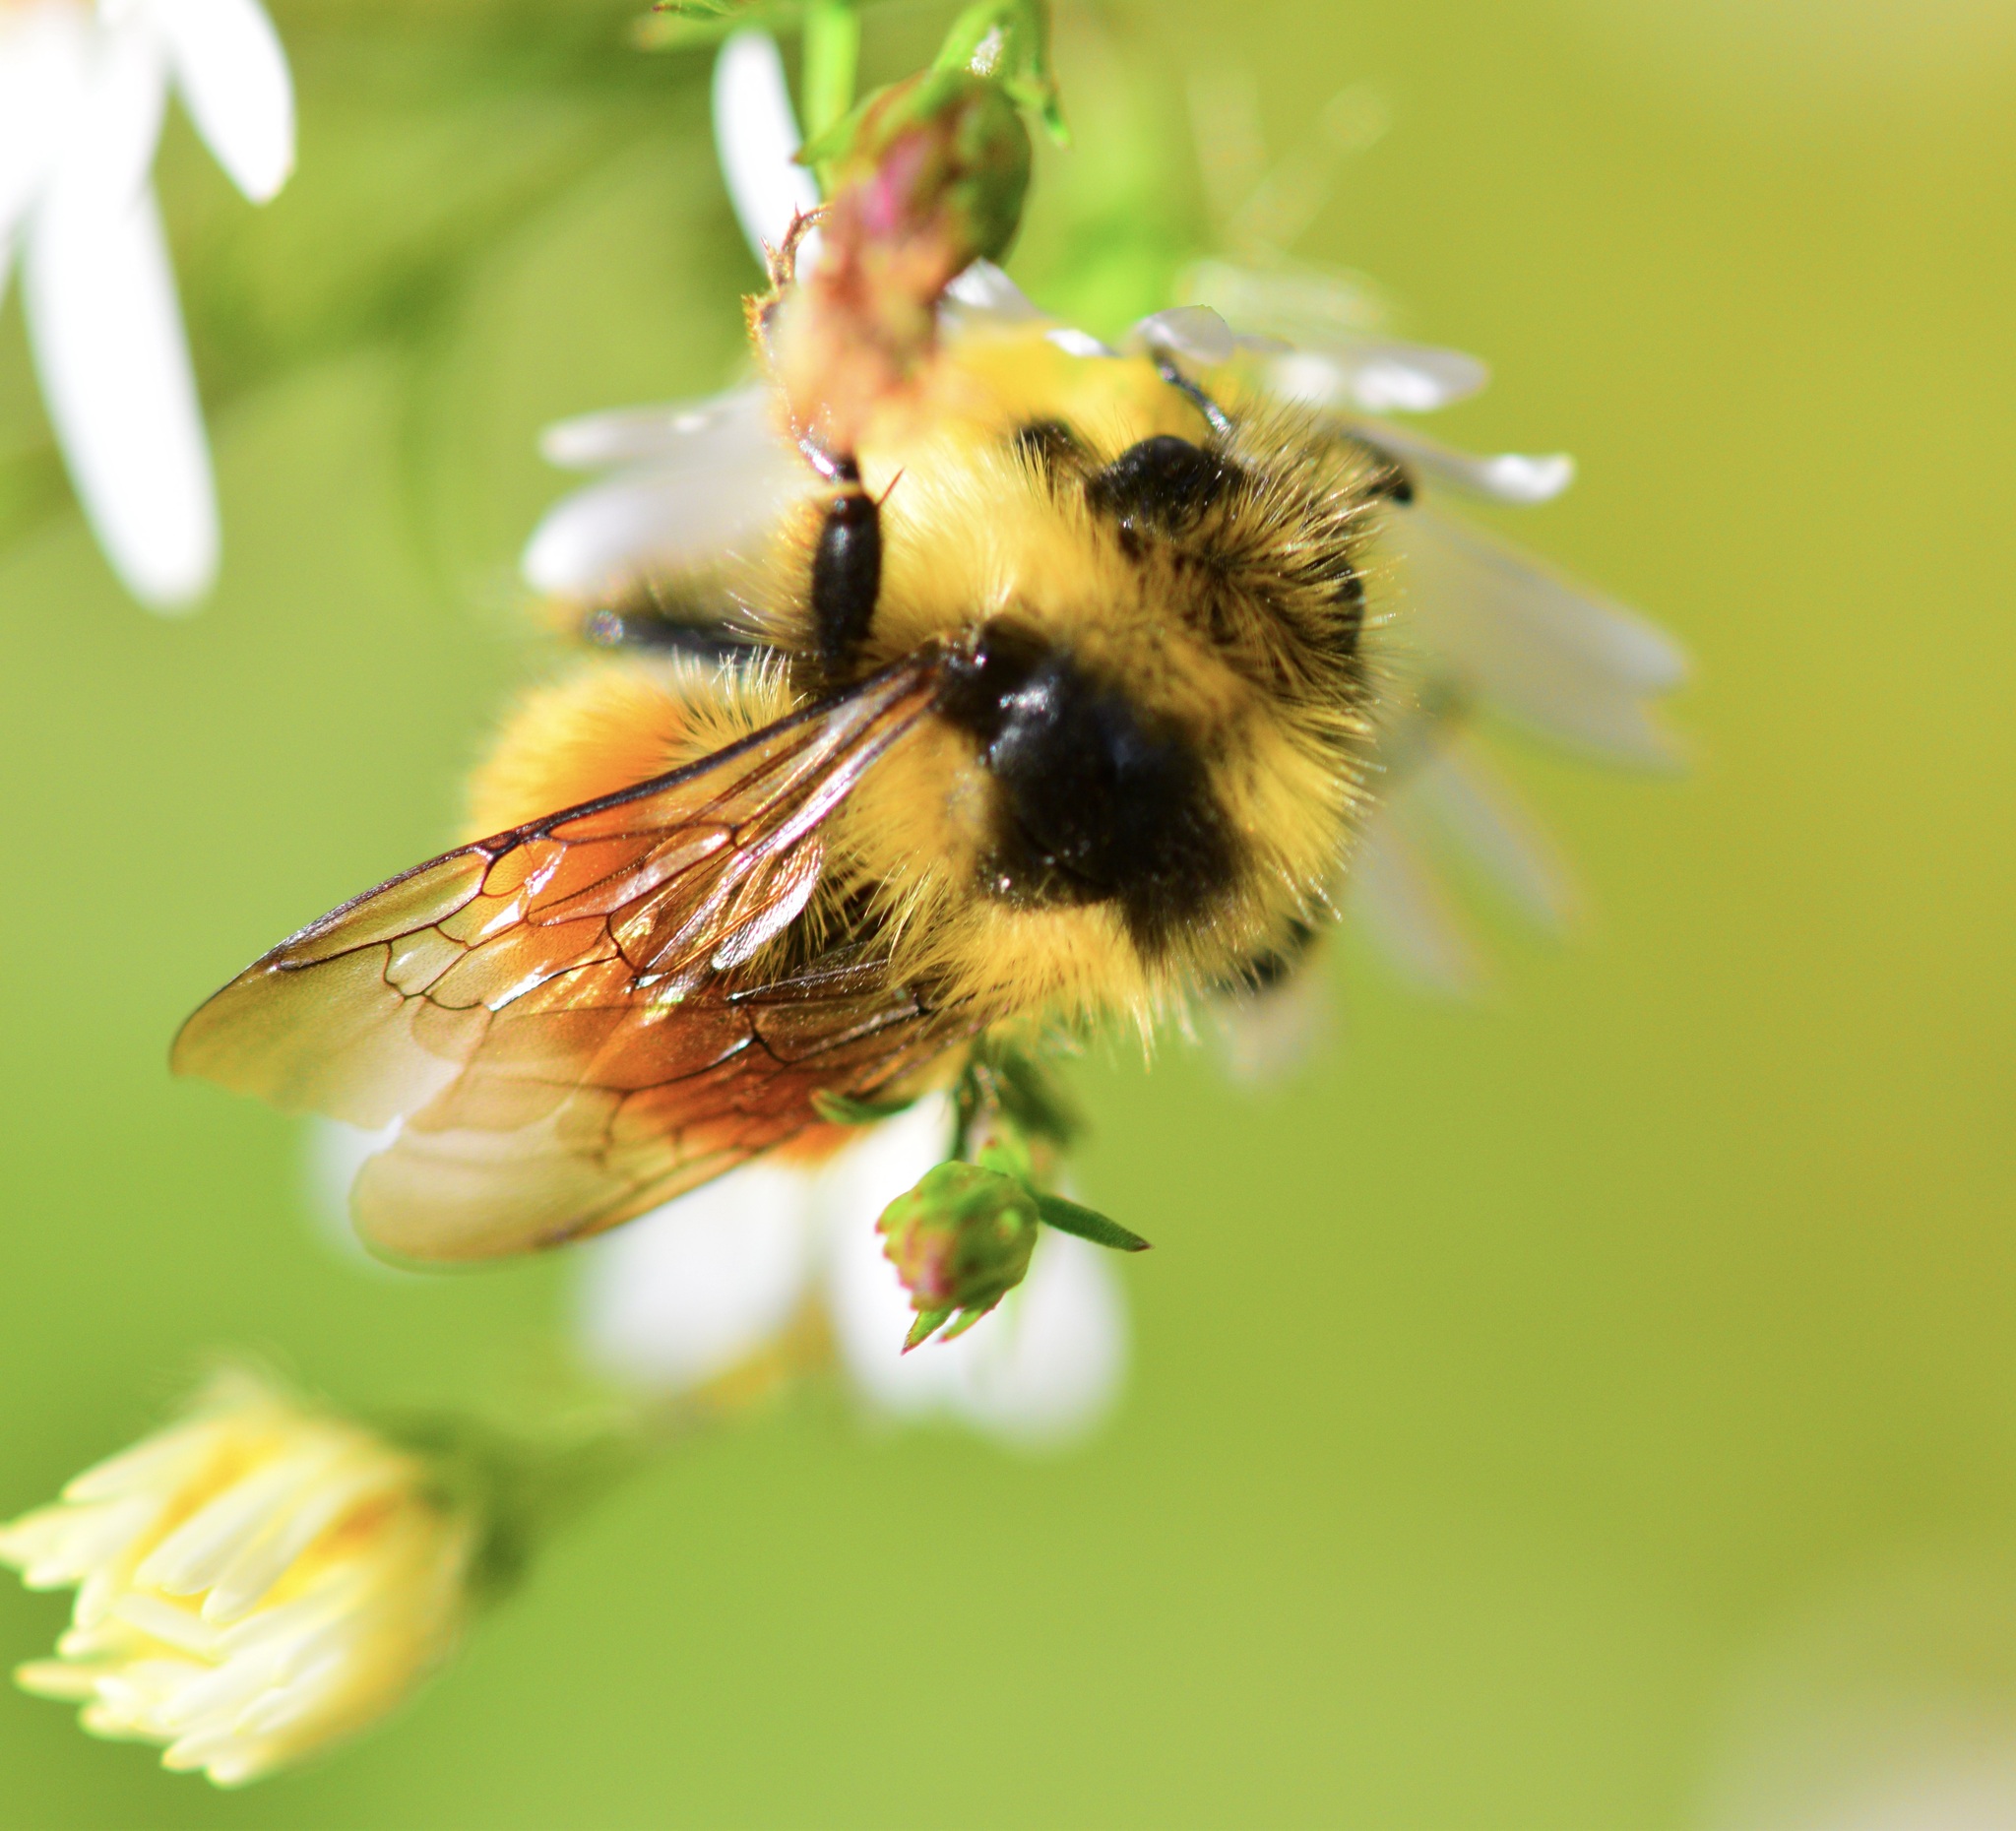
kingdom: Animalia
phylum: Arthropoda
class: Insecta
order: Hymenoptera
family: Apidae
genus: Bombus
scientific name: Bombus ternarius
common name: Tri-colored bumble bee
